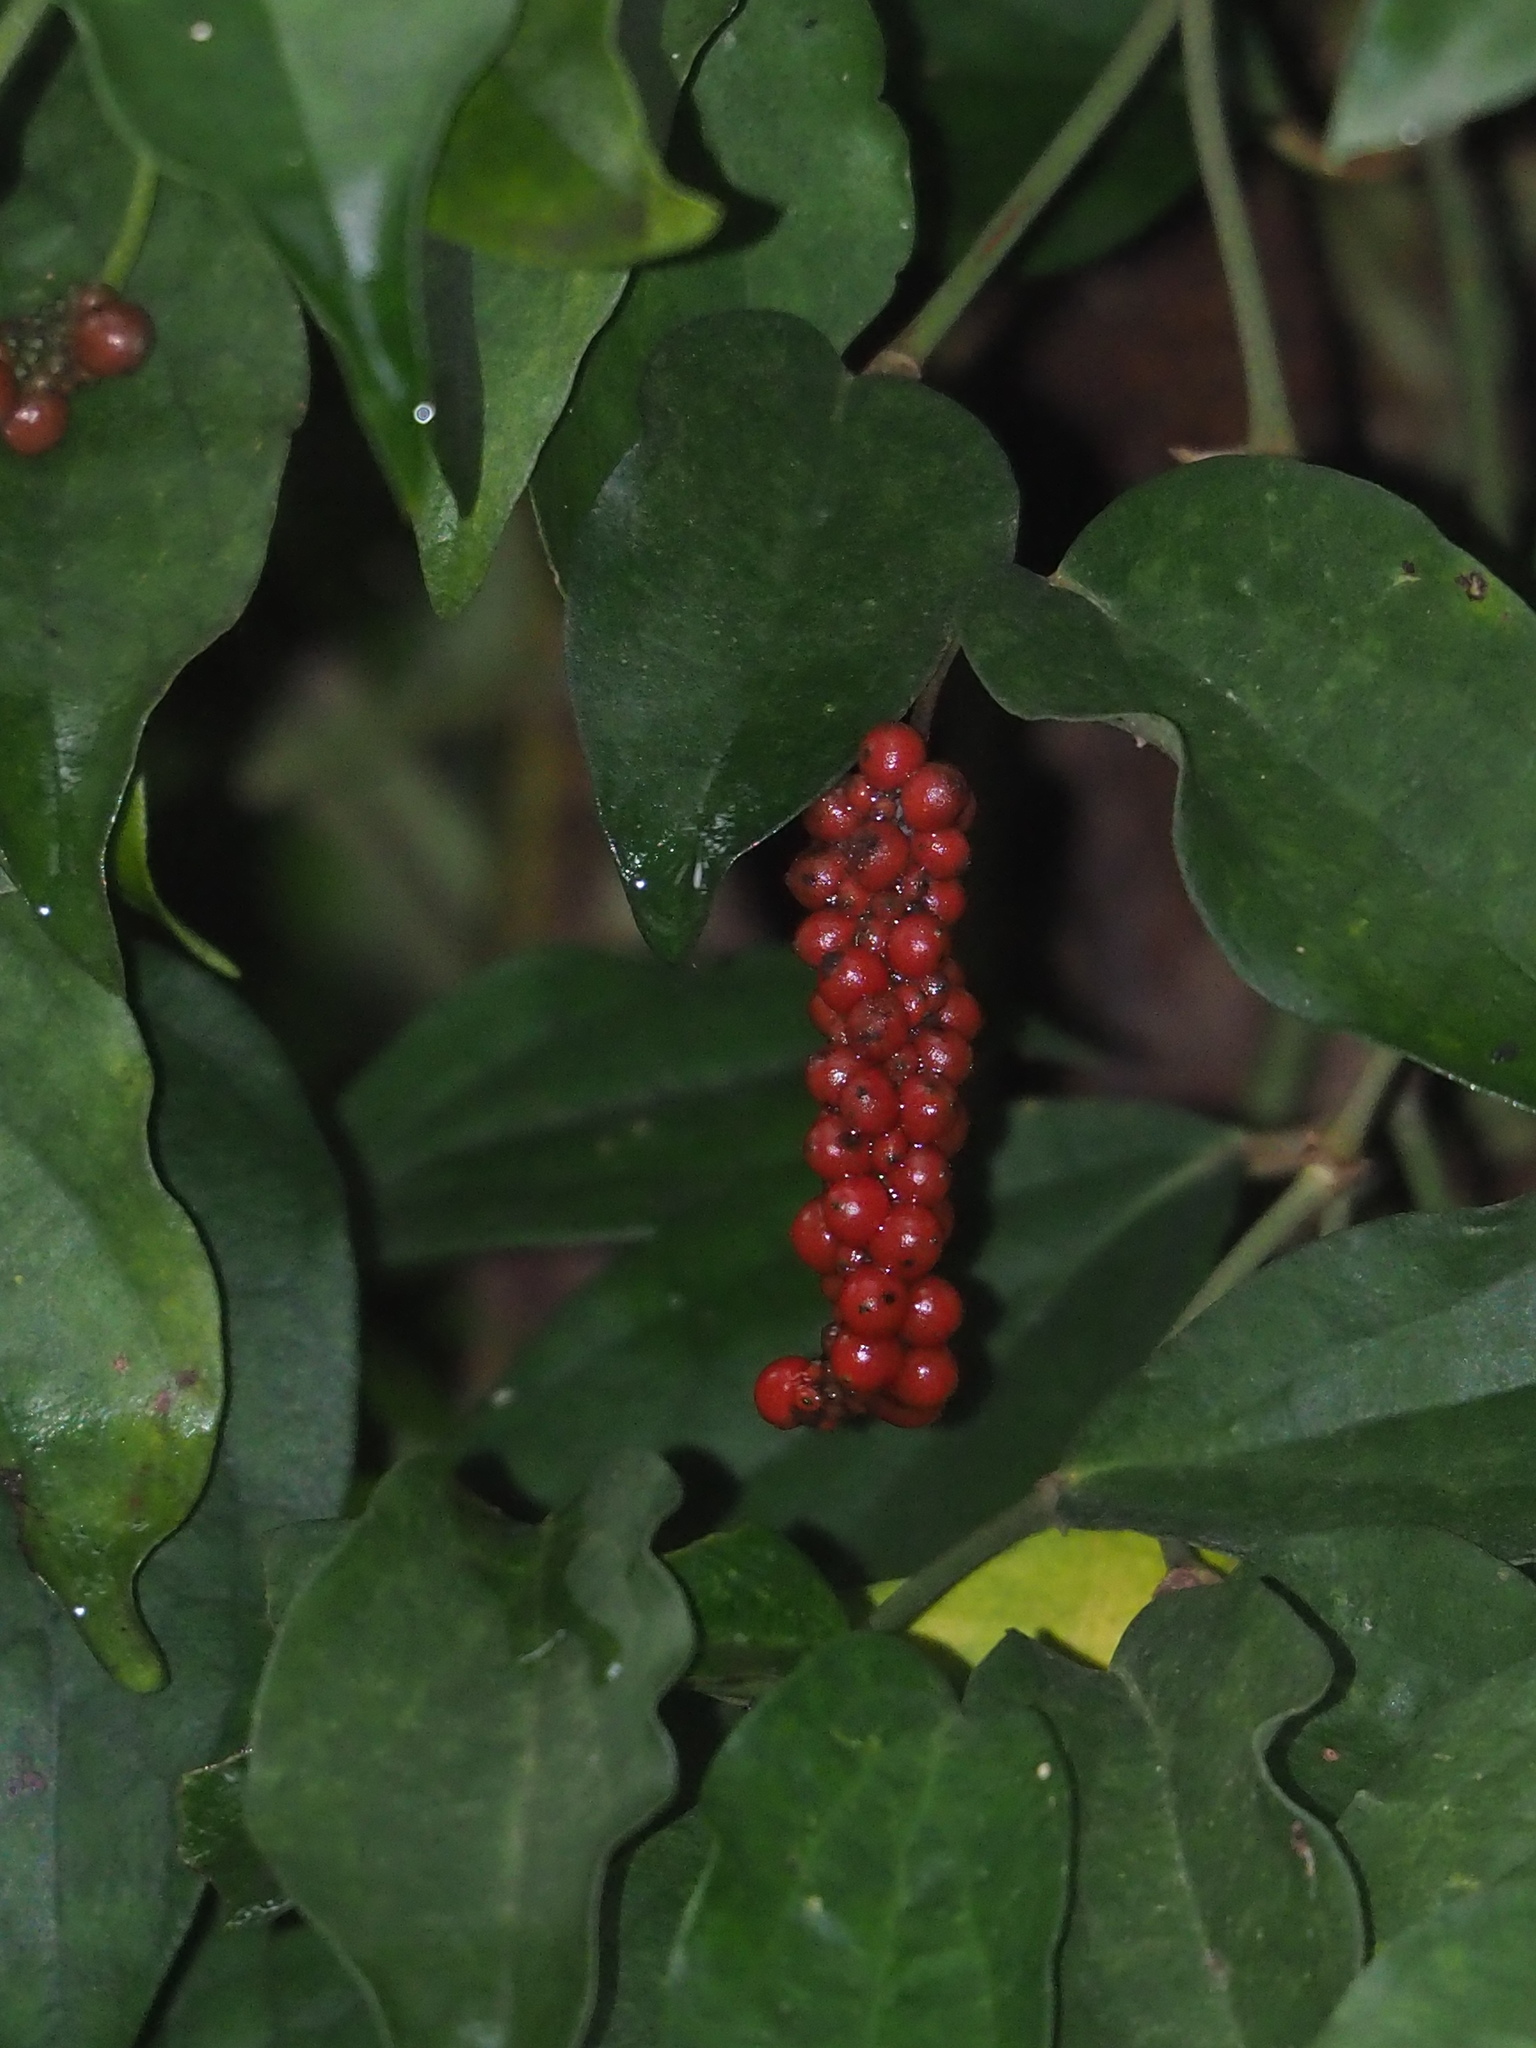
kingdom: Plantae
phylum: Tracheophyta
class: Magnoliopsida
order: Piperales
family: Piperaceae
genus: Piper
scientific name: Piper taiwanense
